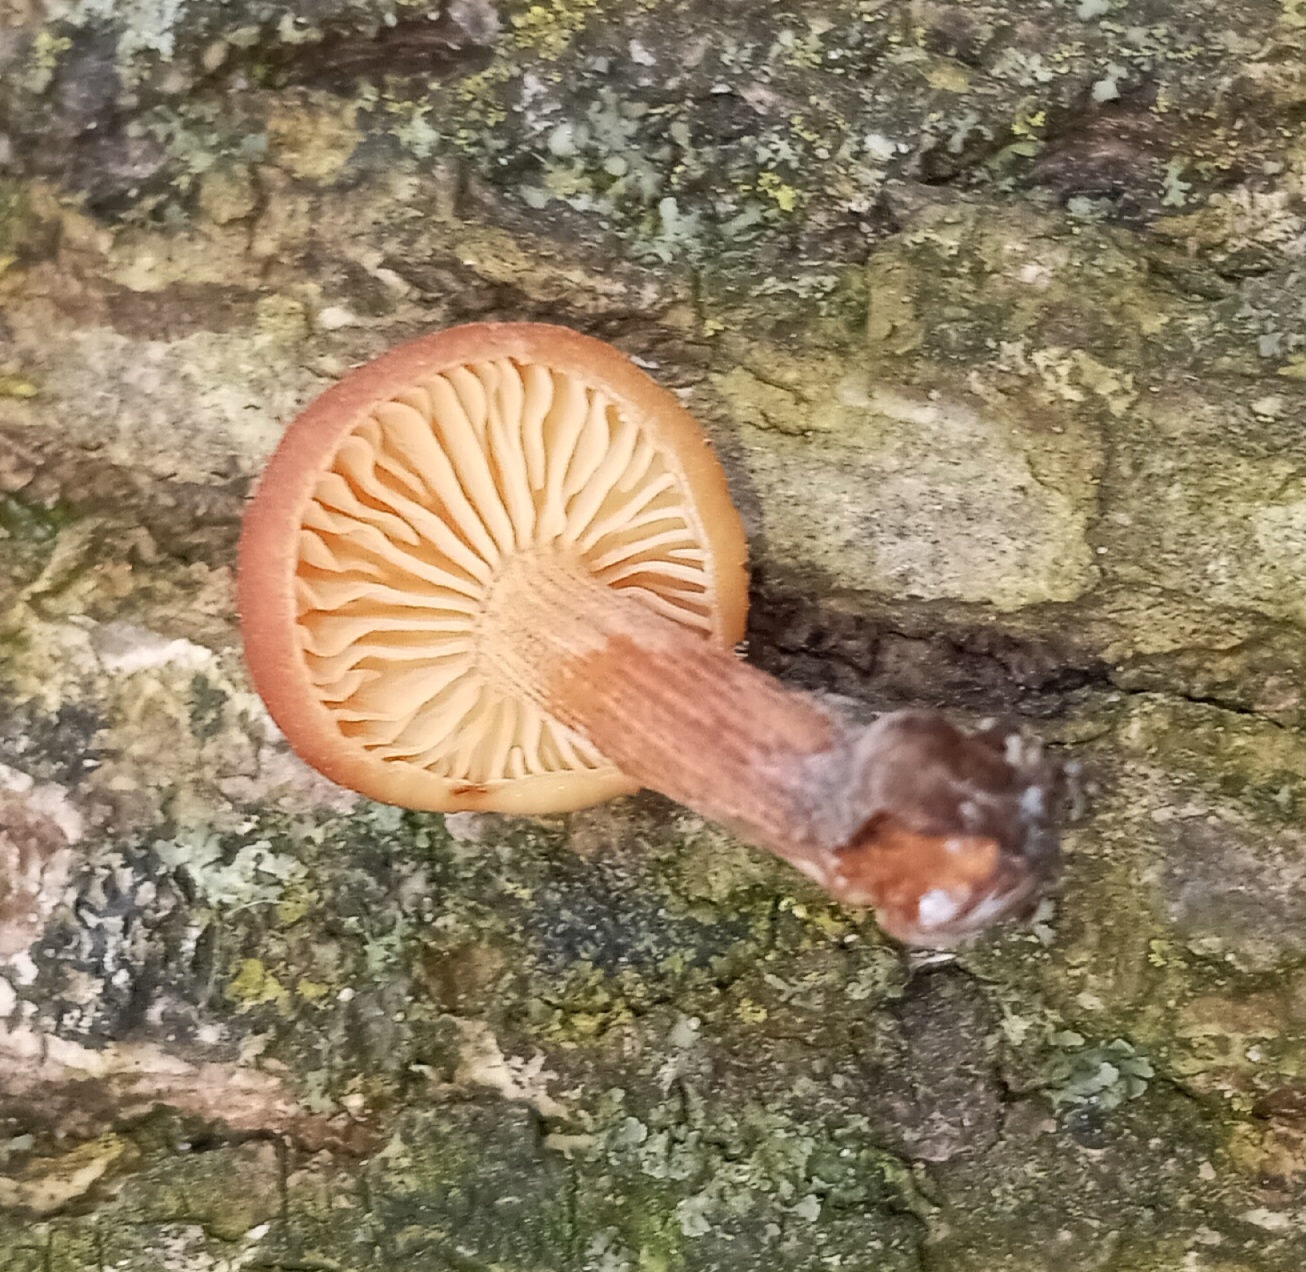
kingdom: Fungi
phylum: Basidiomycota
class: Agaricomycetes
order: Agaricales
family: Physalacriaceae
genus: Flammulina
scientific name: Flammulina velutipes
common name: Velvet shank
